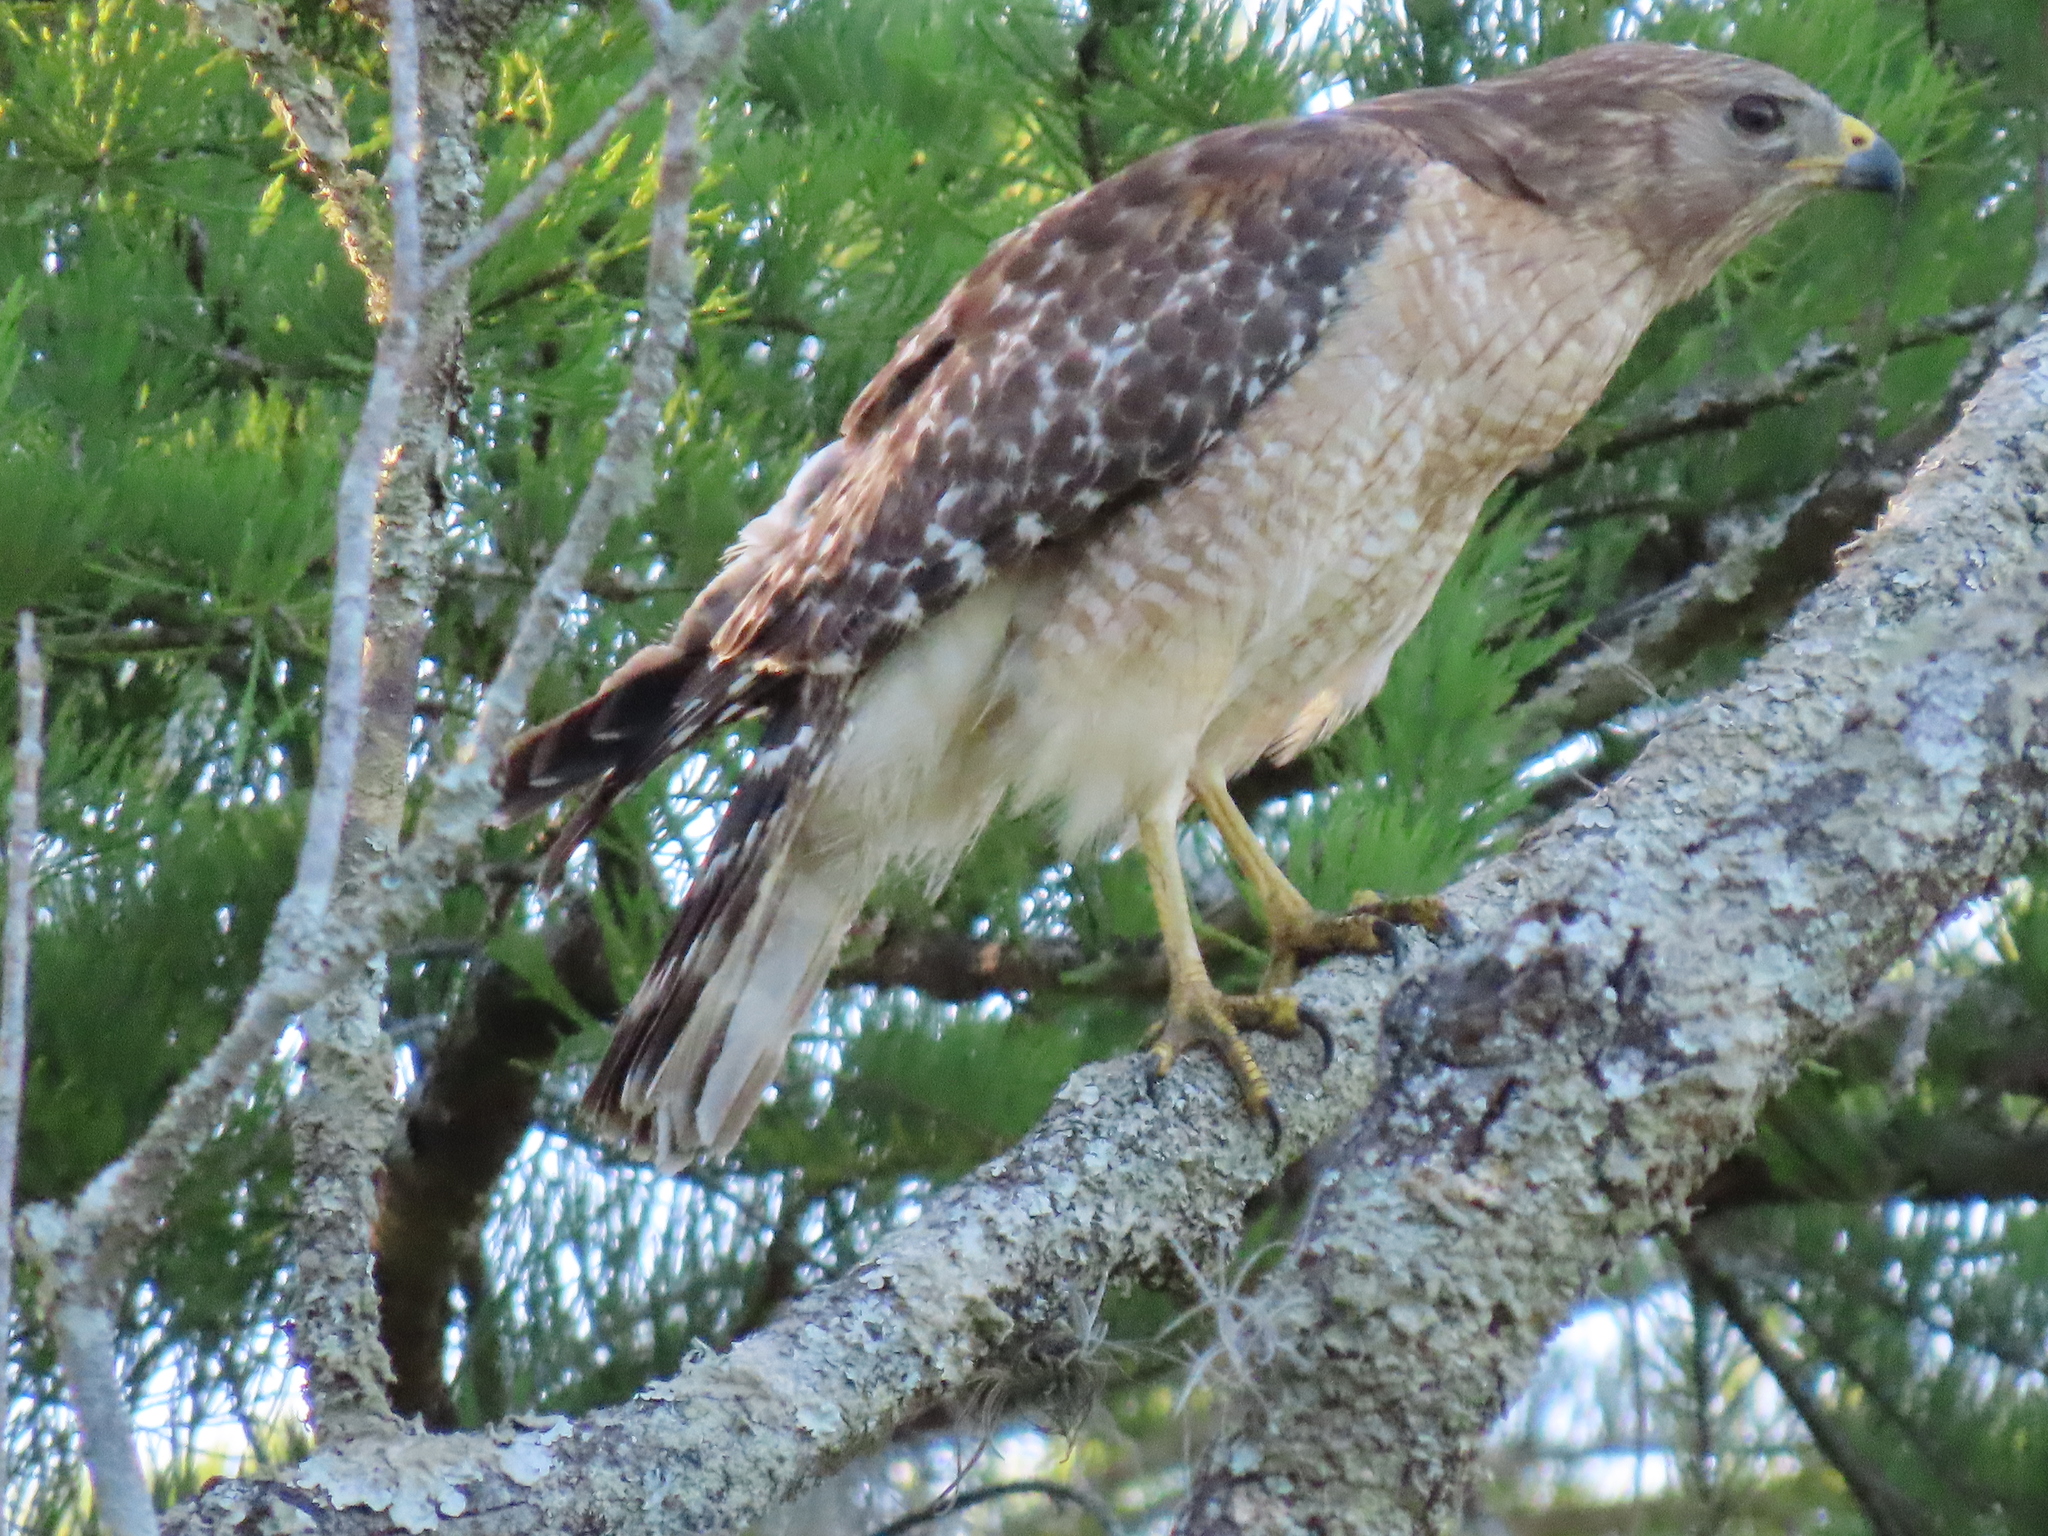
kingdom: Animalia
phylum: Chordata
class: Aves
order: Accipitriformes
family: Accipitridae
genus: Buteo
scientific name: Buteo lineatus
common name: Red-shouldered hawk
